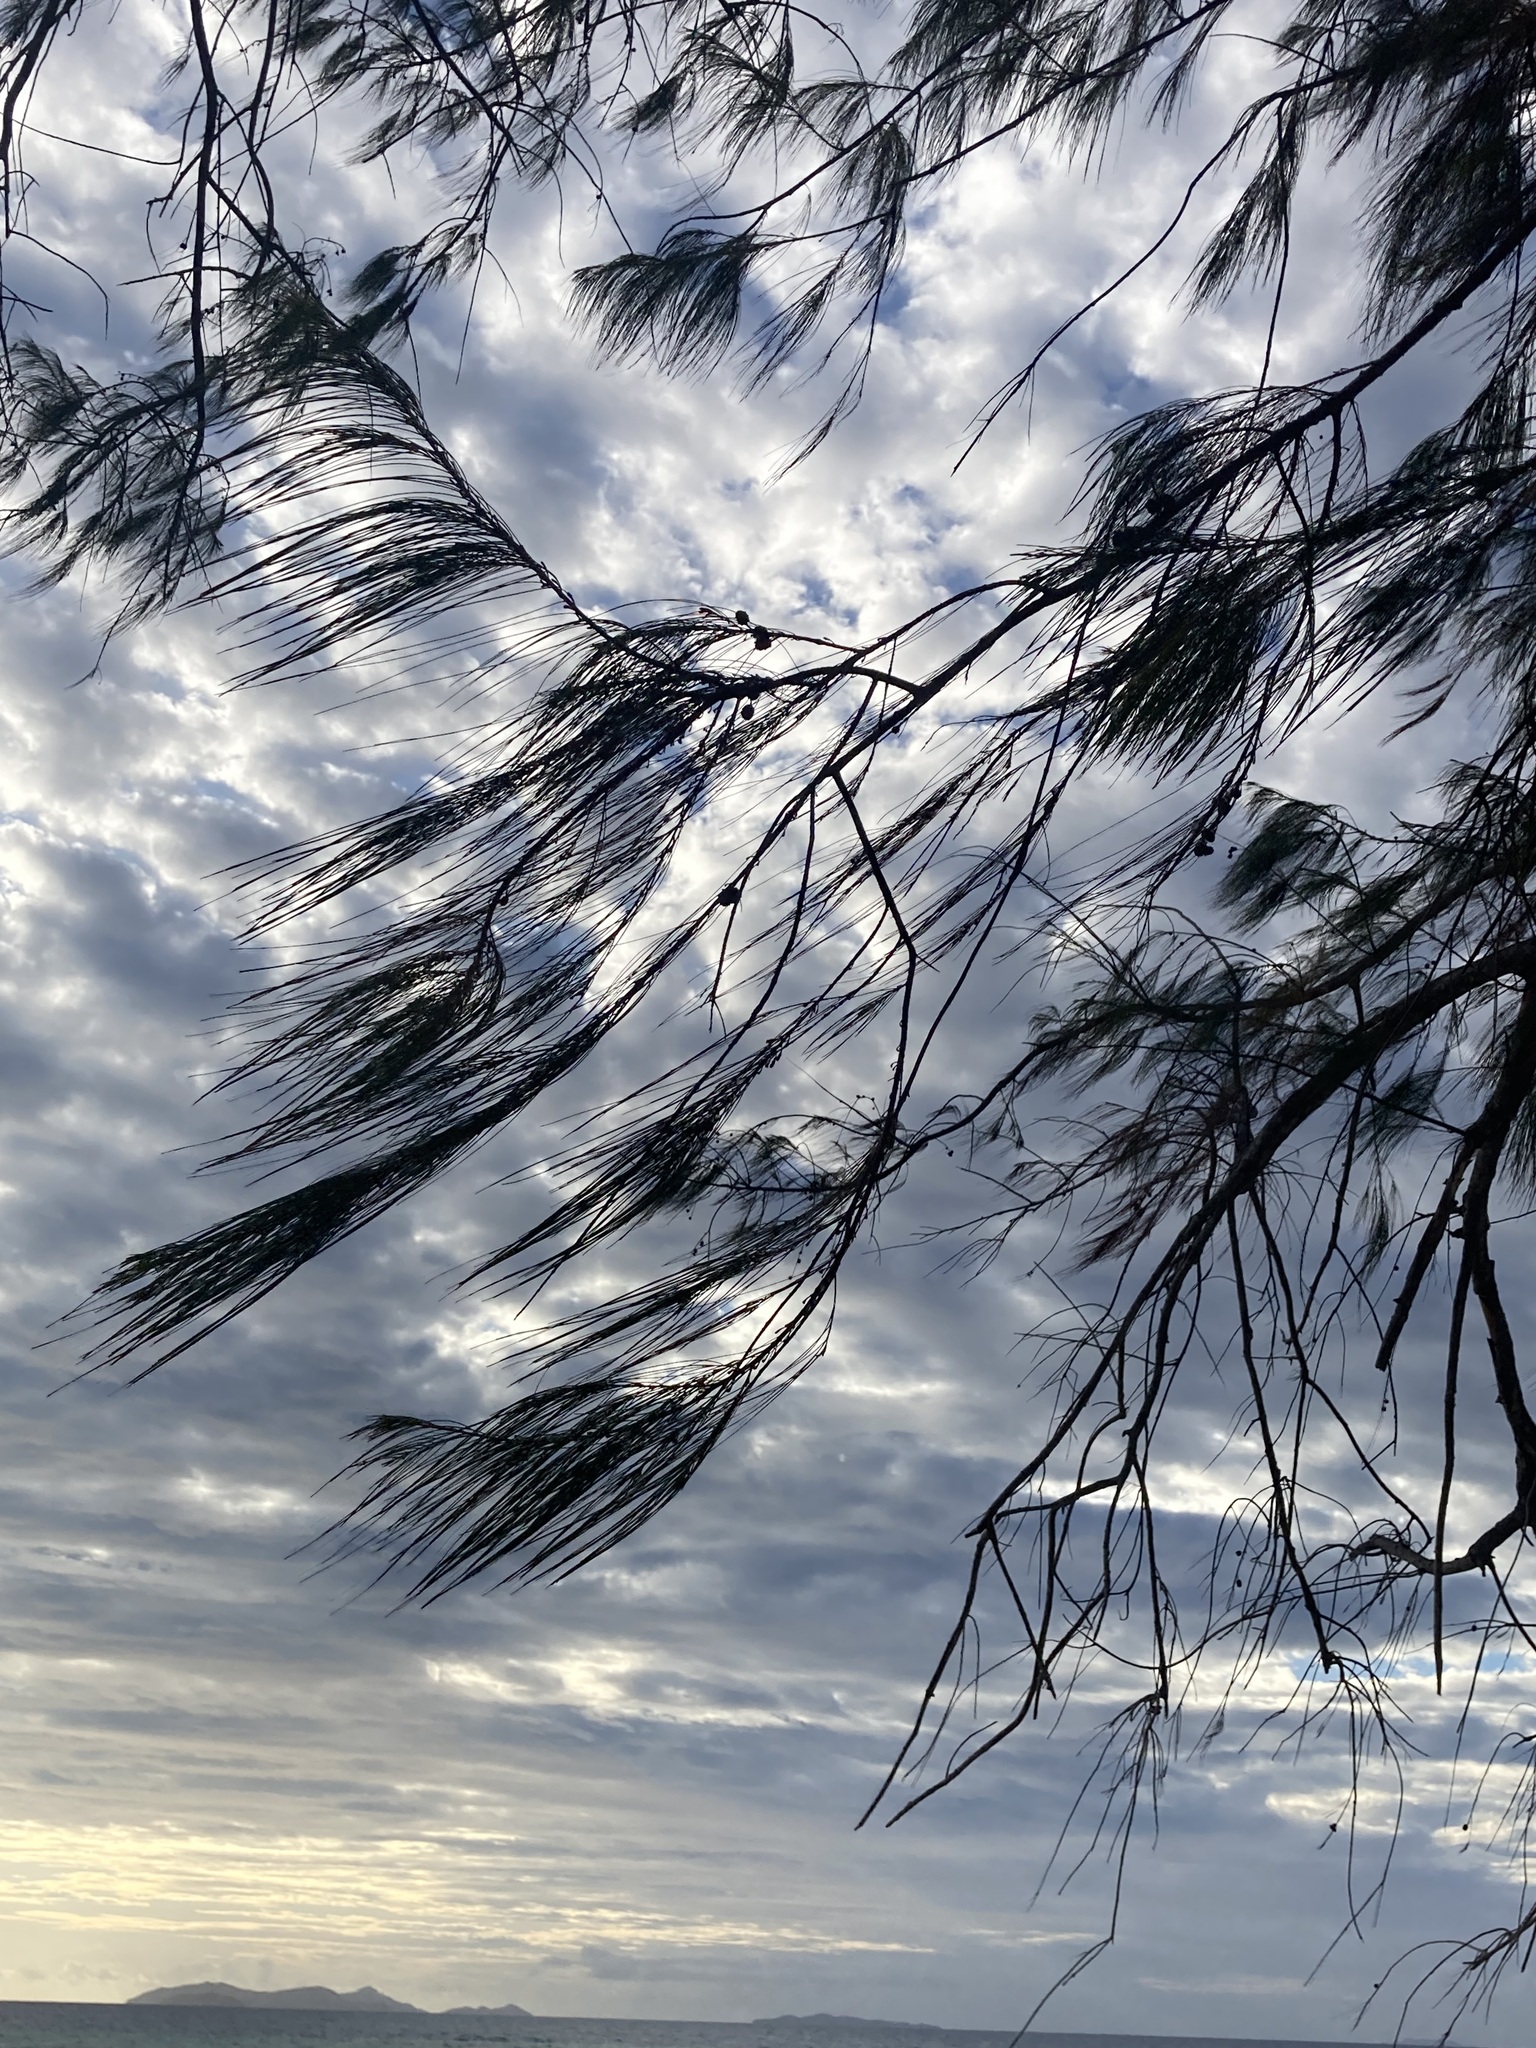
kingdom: Plantae
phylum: Tracheophyta
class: Magnoliopsida
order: Fagales
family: Casuarinaceae
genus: Casuarina
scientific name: Casuarina equisetifolia
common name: Beach sheoak
